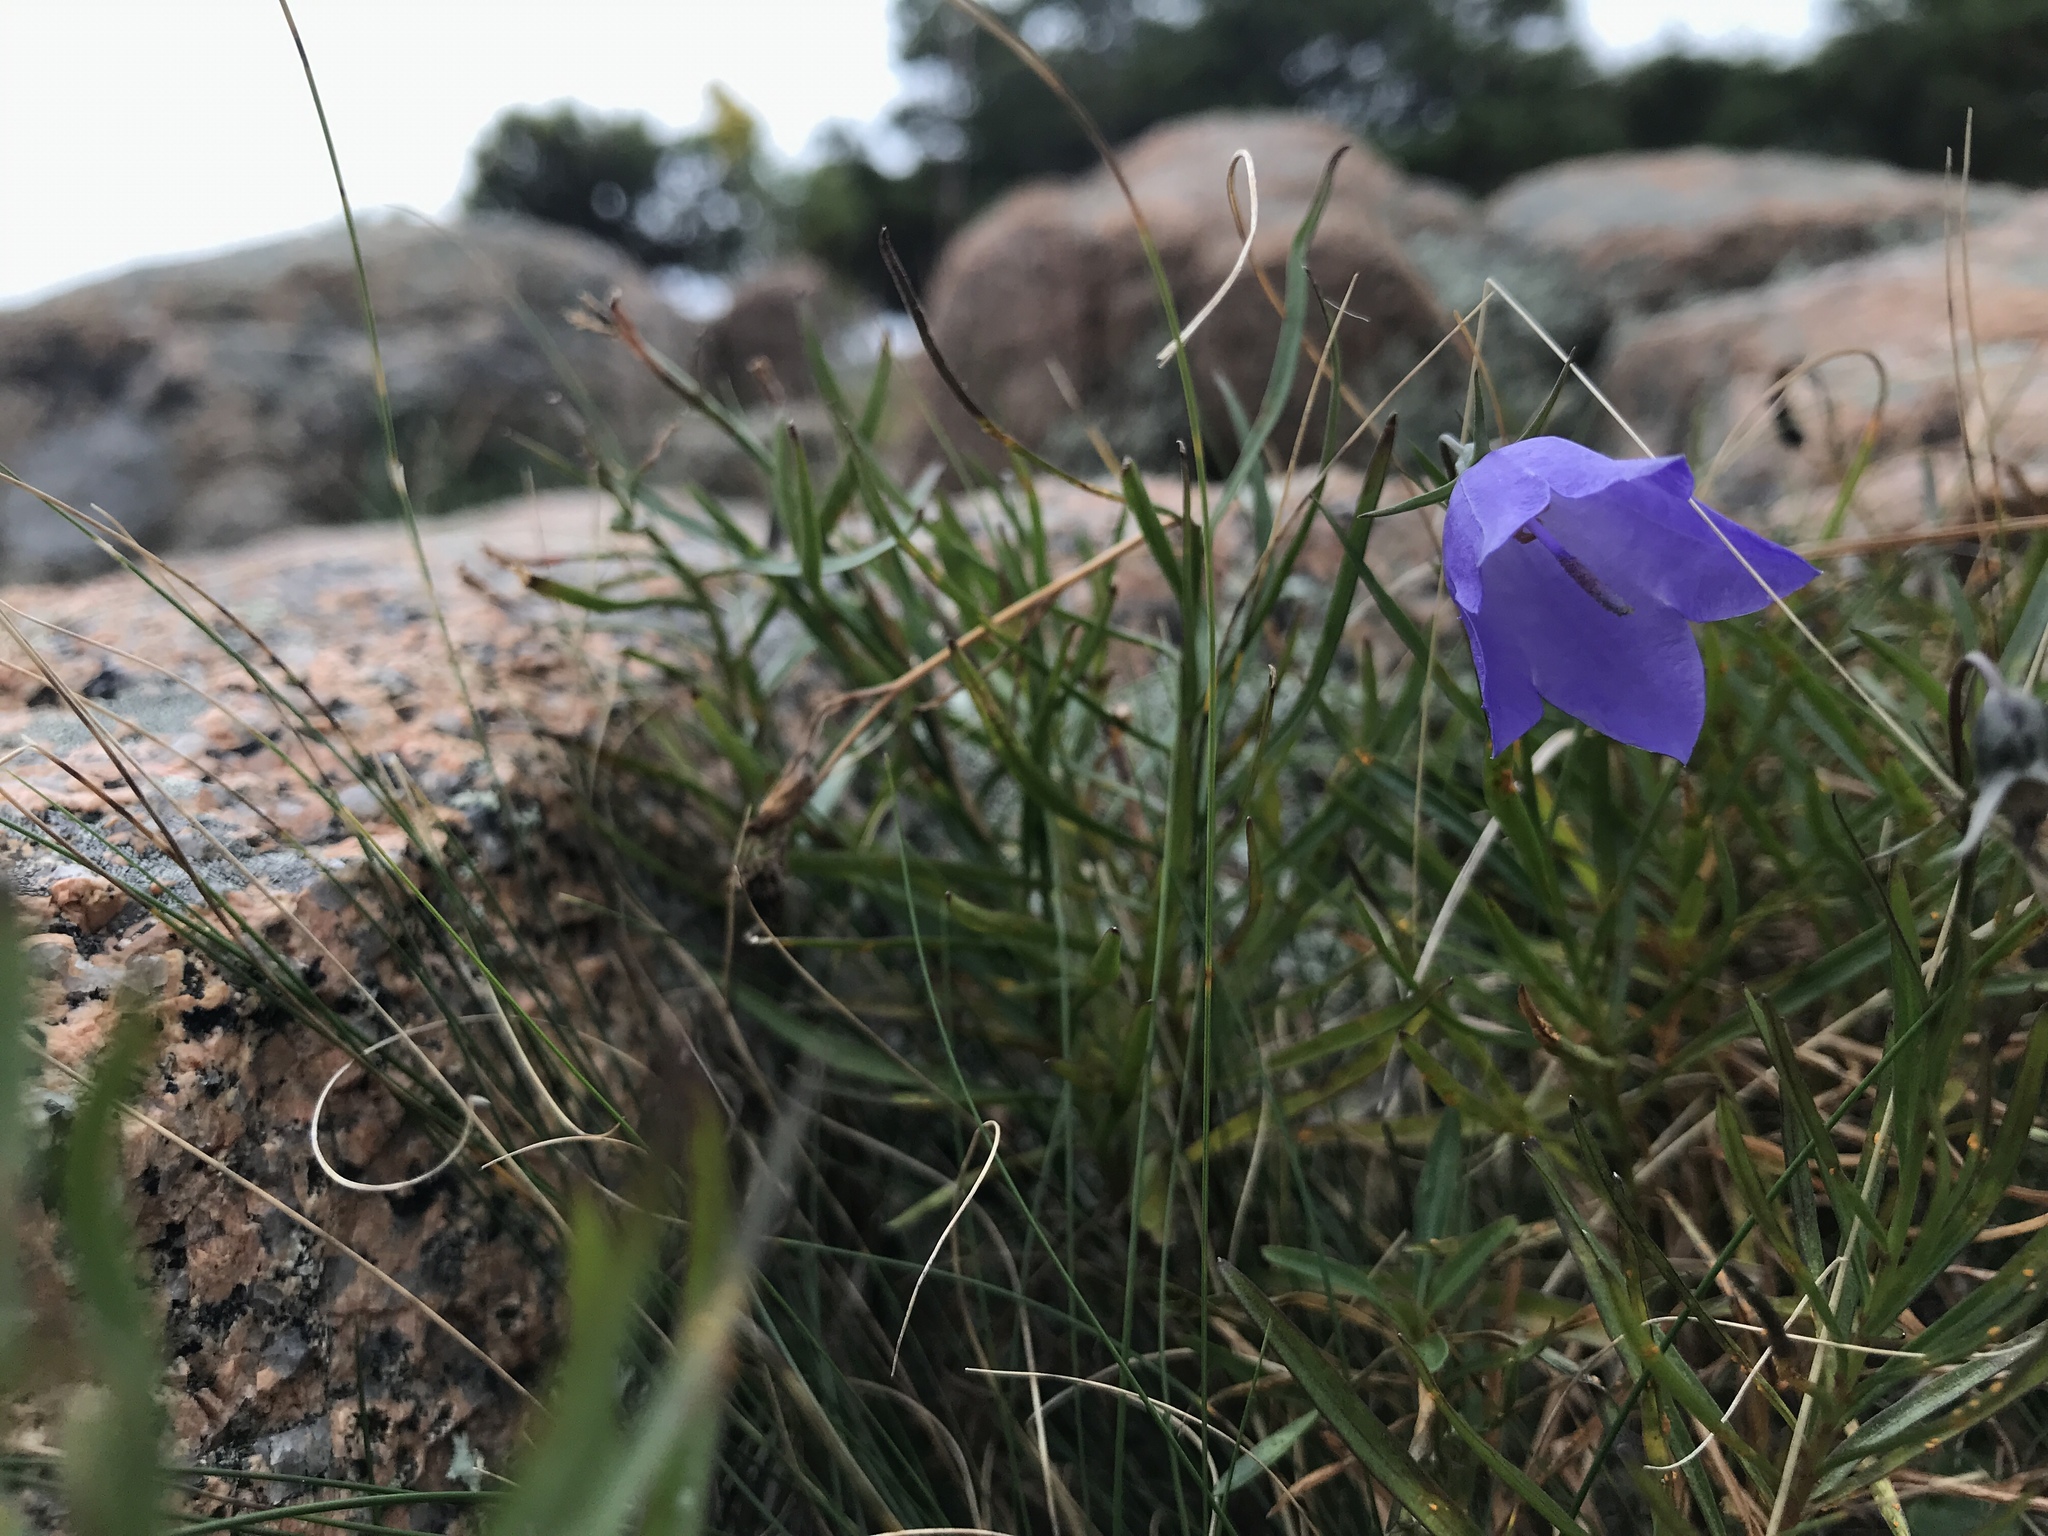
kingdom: Plantae
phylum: Tracheophyta
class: Magnoliopsida
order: Asterales
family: Campanulaceae
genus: Campanula
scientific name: Campanula intercedens
